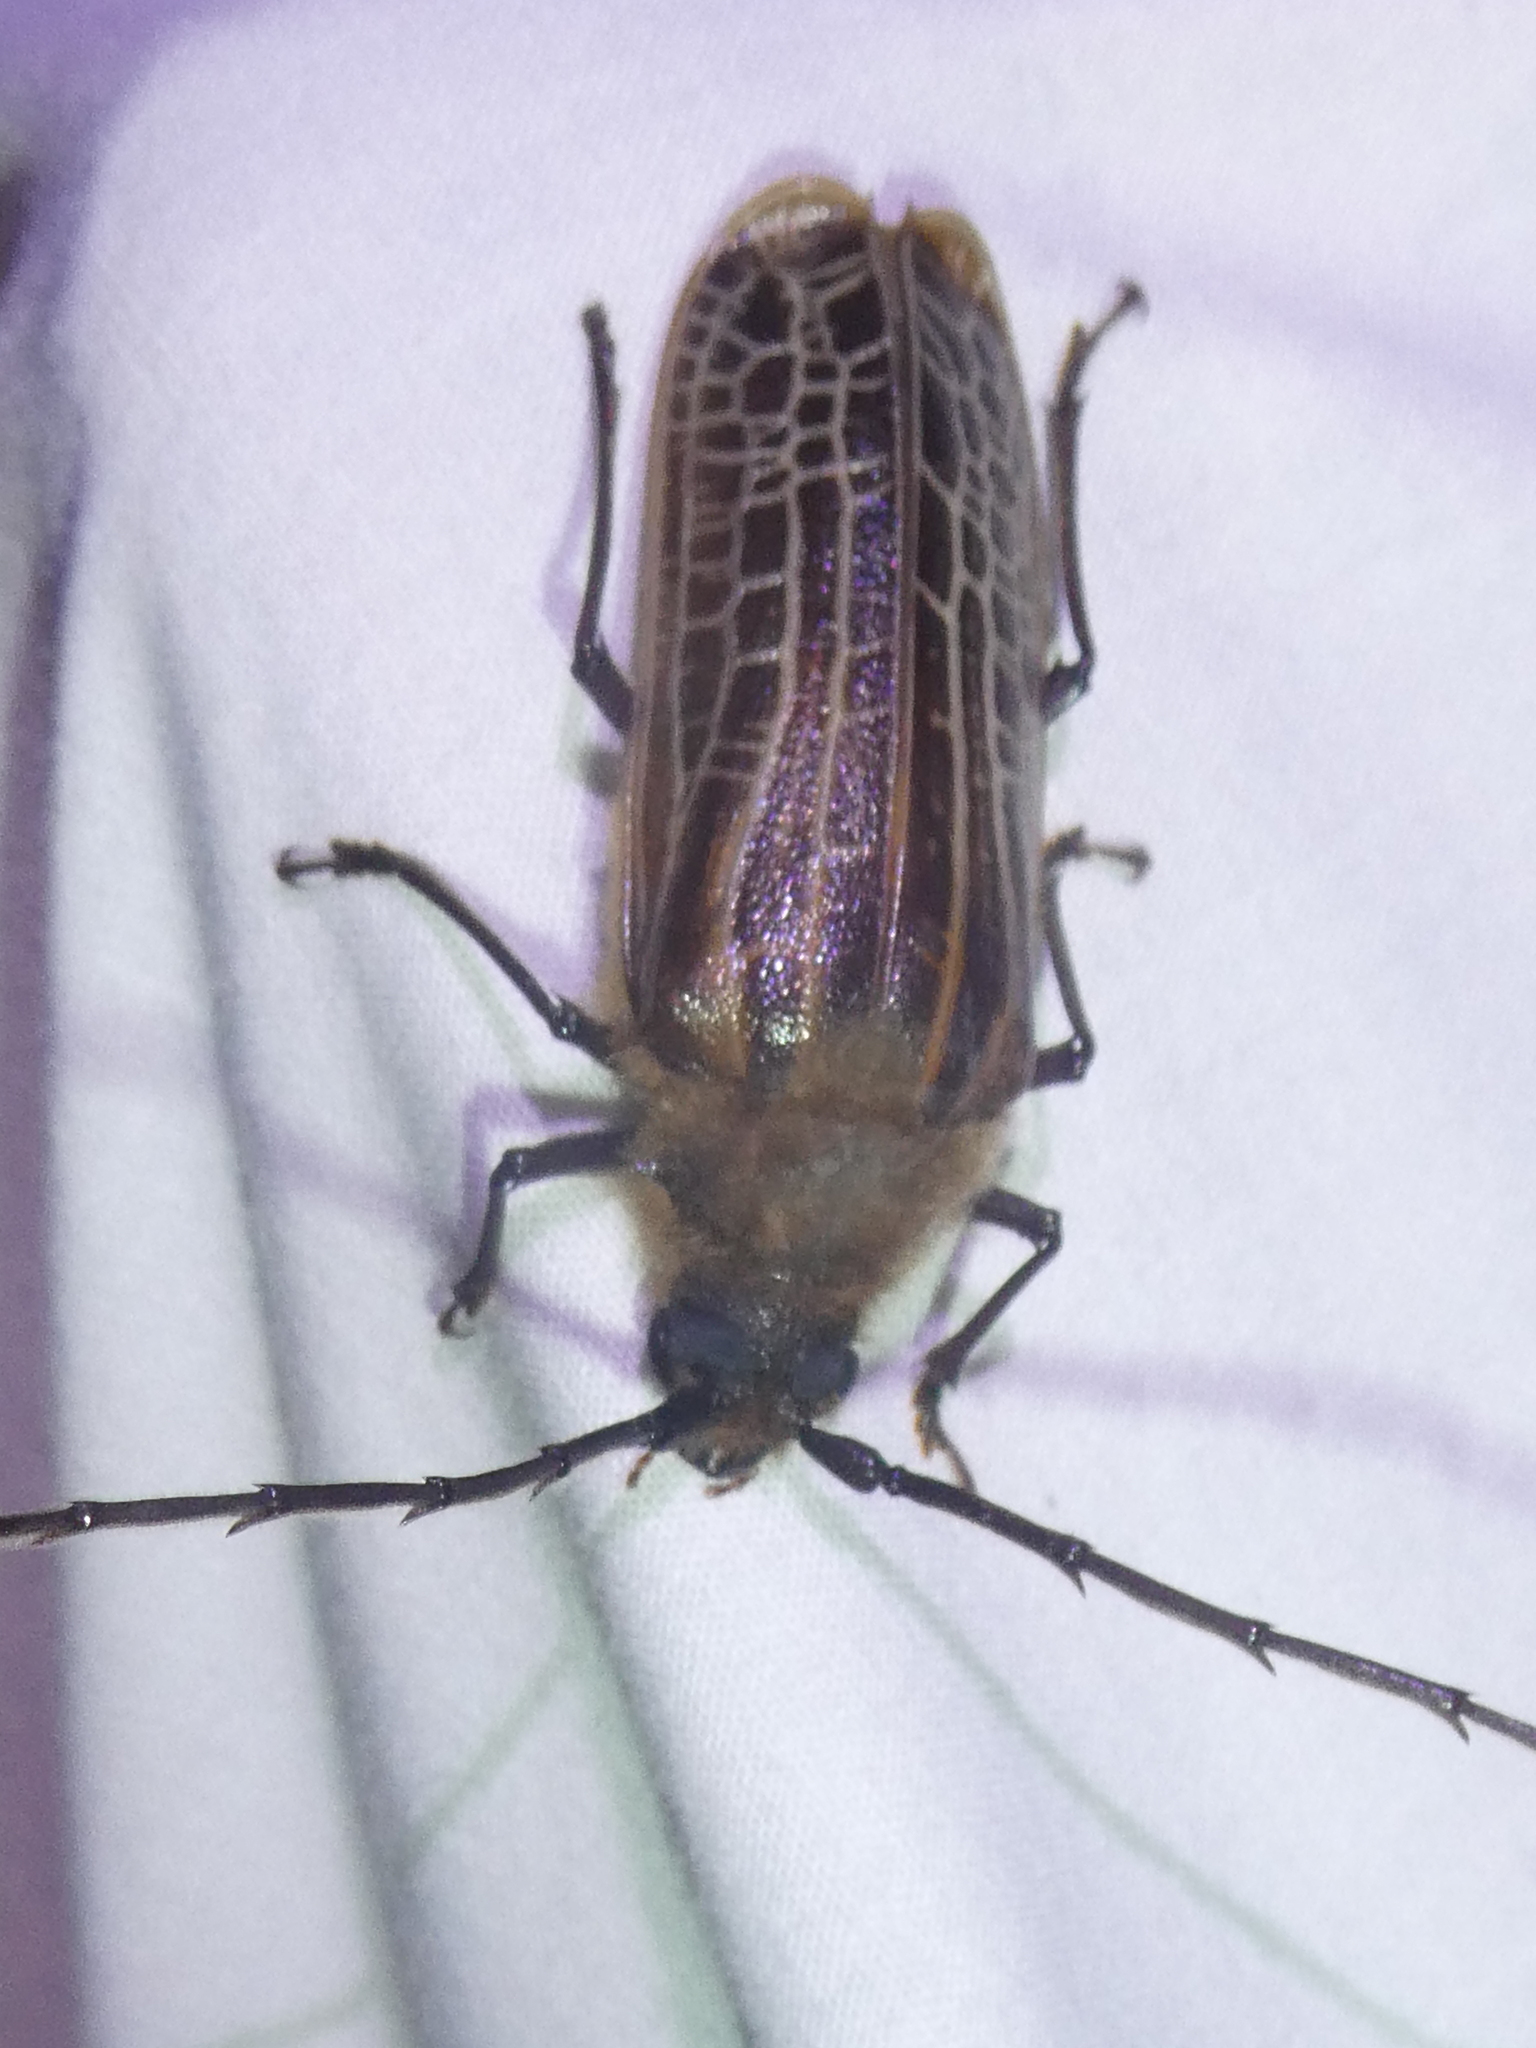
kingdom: Animalia
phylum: Arthropoda
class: Insecta
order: Coleoptera
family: Cerambycidae
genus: Prionoplus
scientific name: Prionoplus reticularis
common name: Huhu beetle
